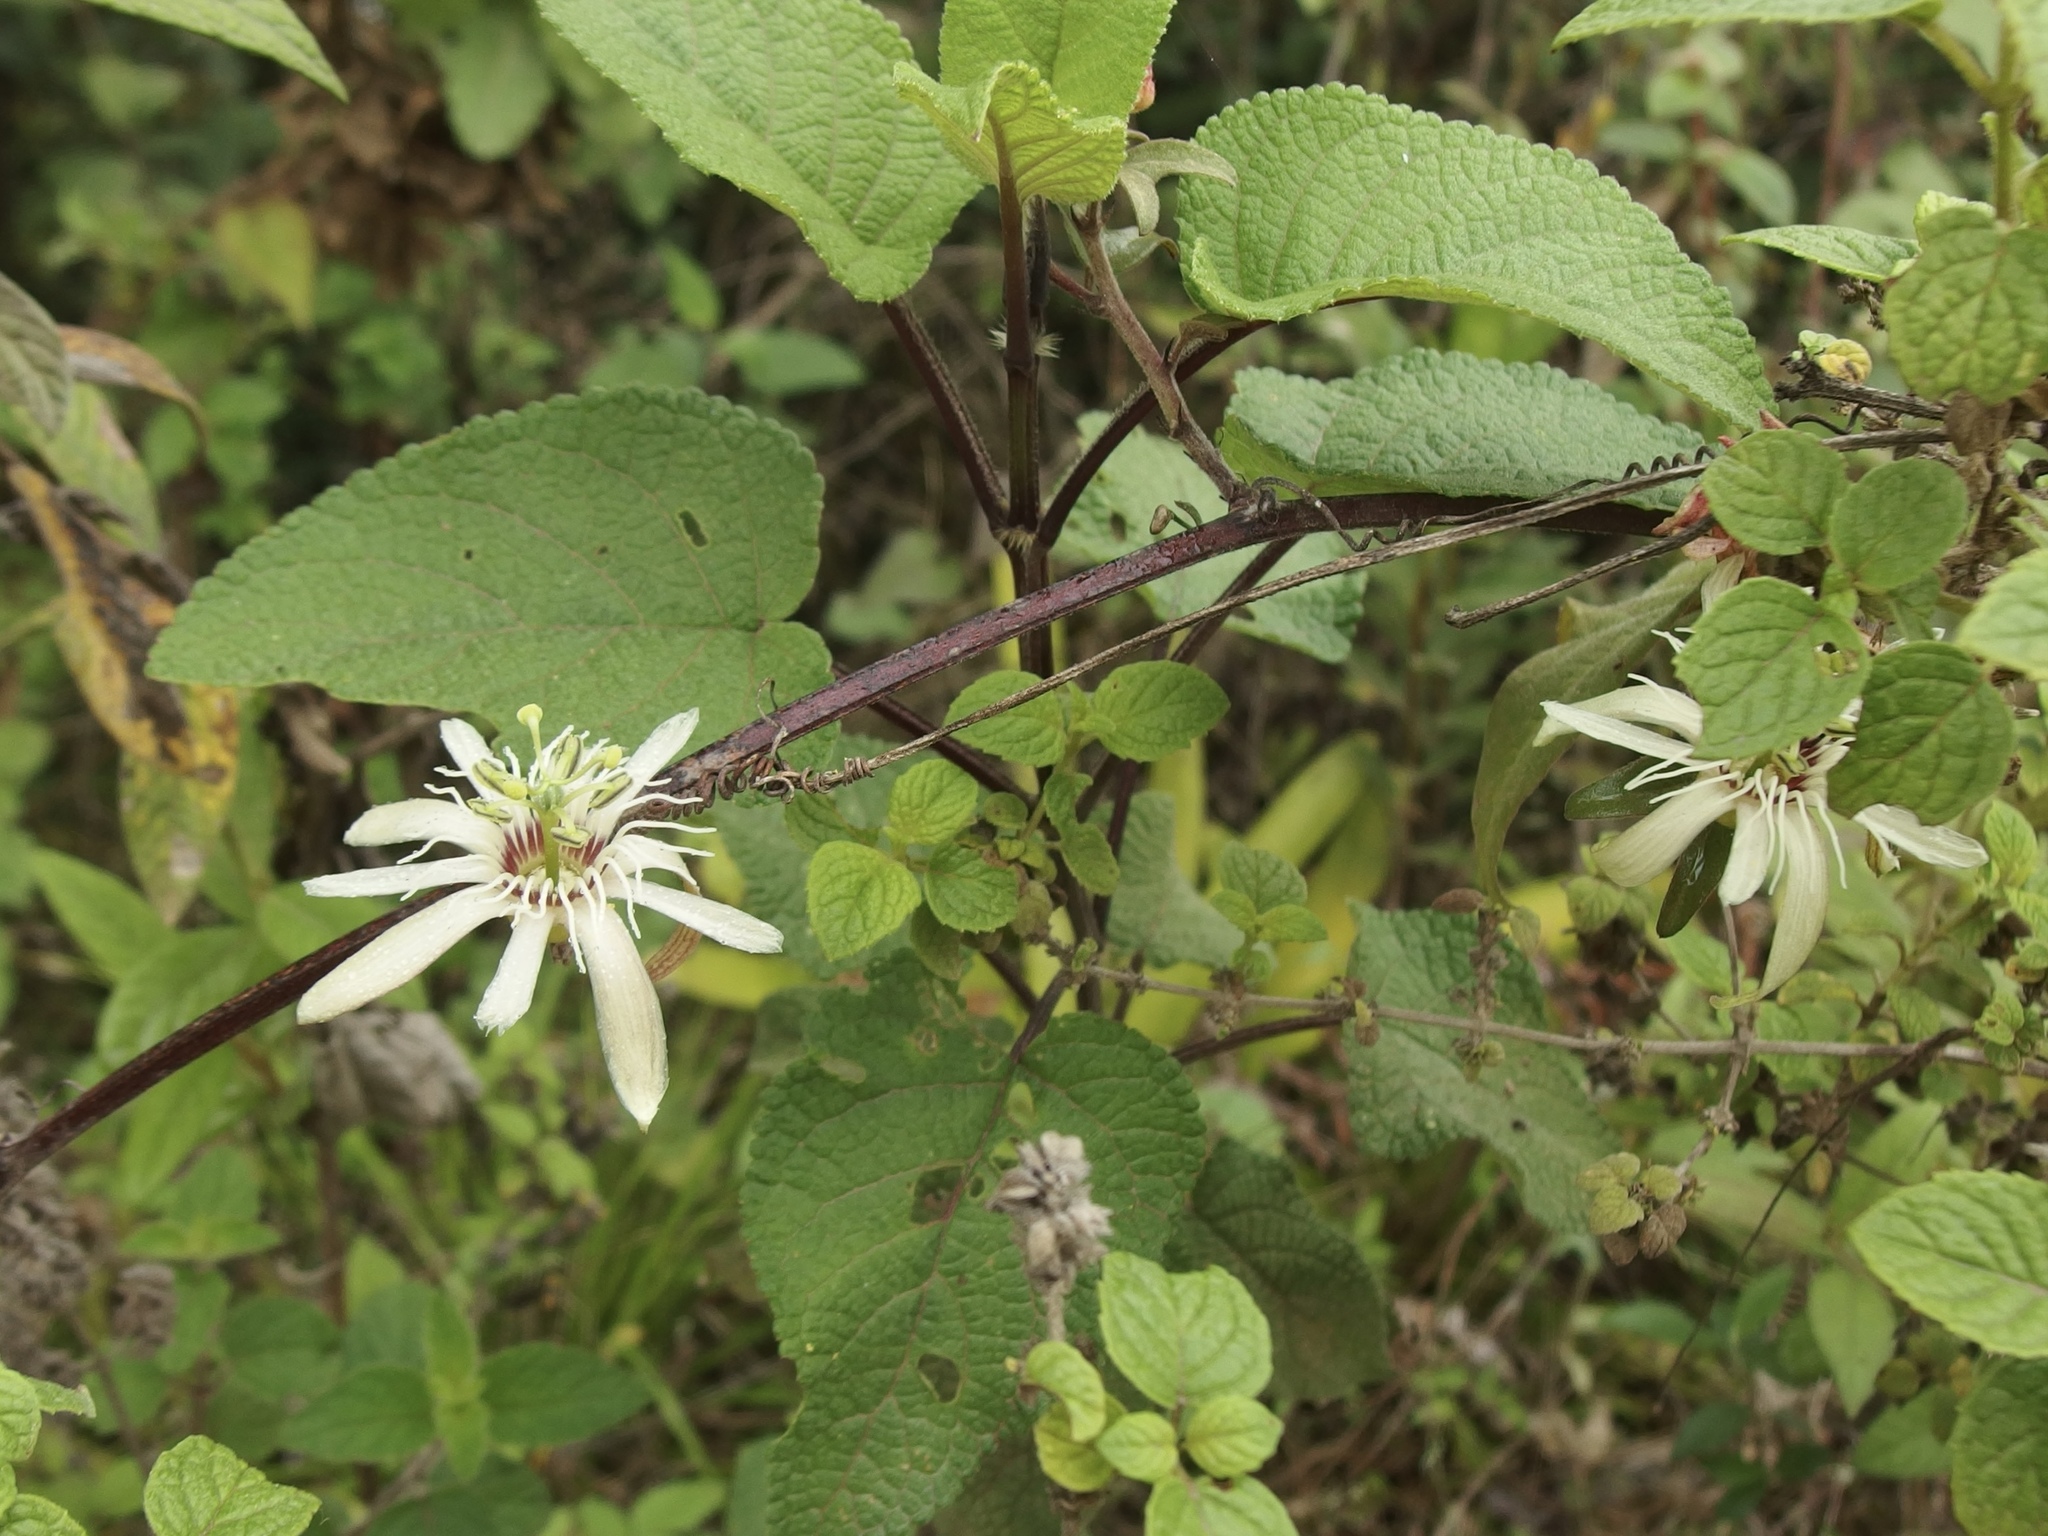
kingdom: Plantae
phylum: Tracheophyta
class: Magnoliopsida
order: Malpighiales
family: Passifloraceae
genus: Passiflora
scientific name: Passiflora cisnana
